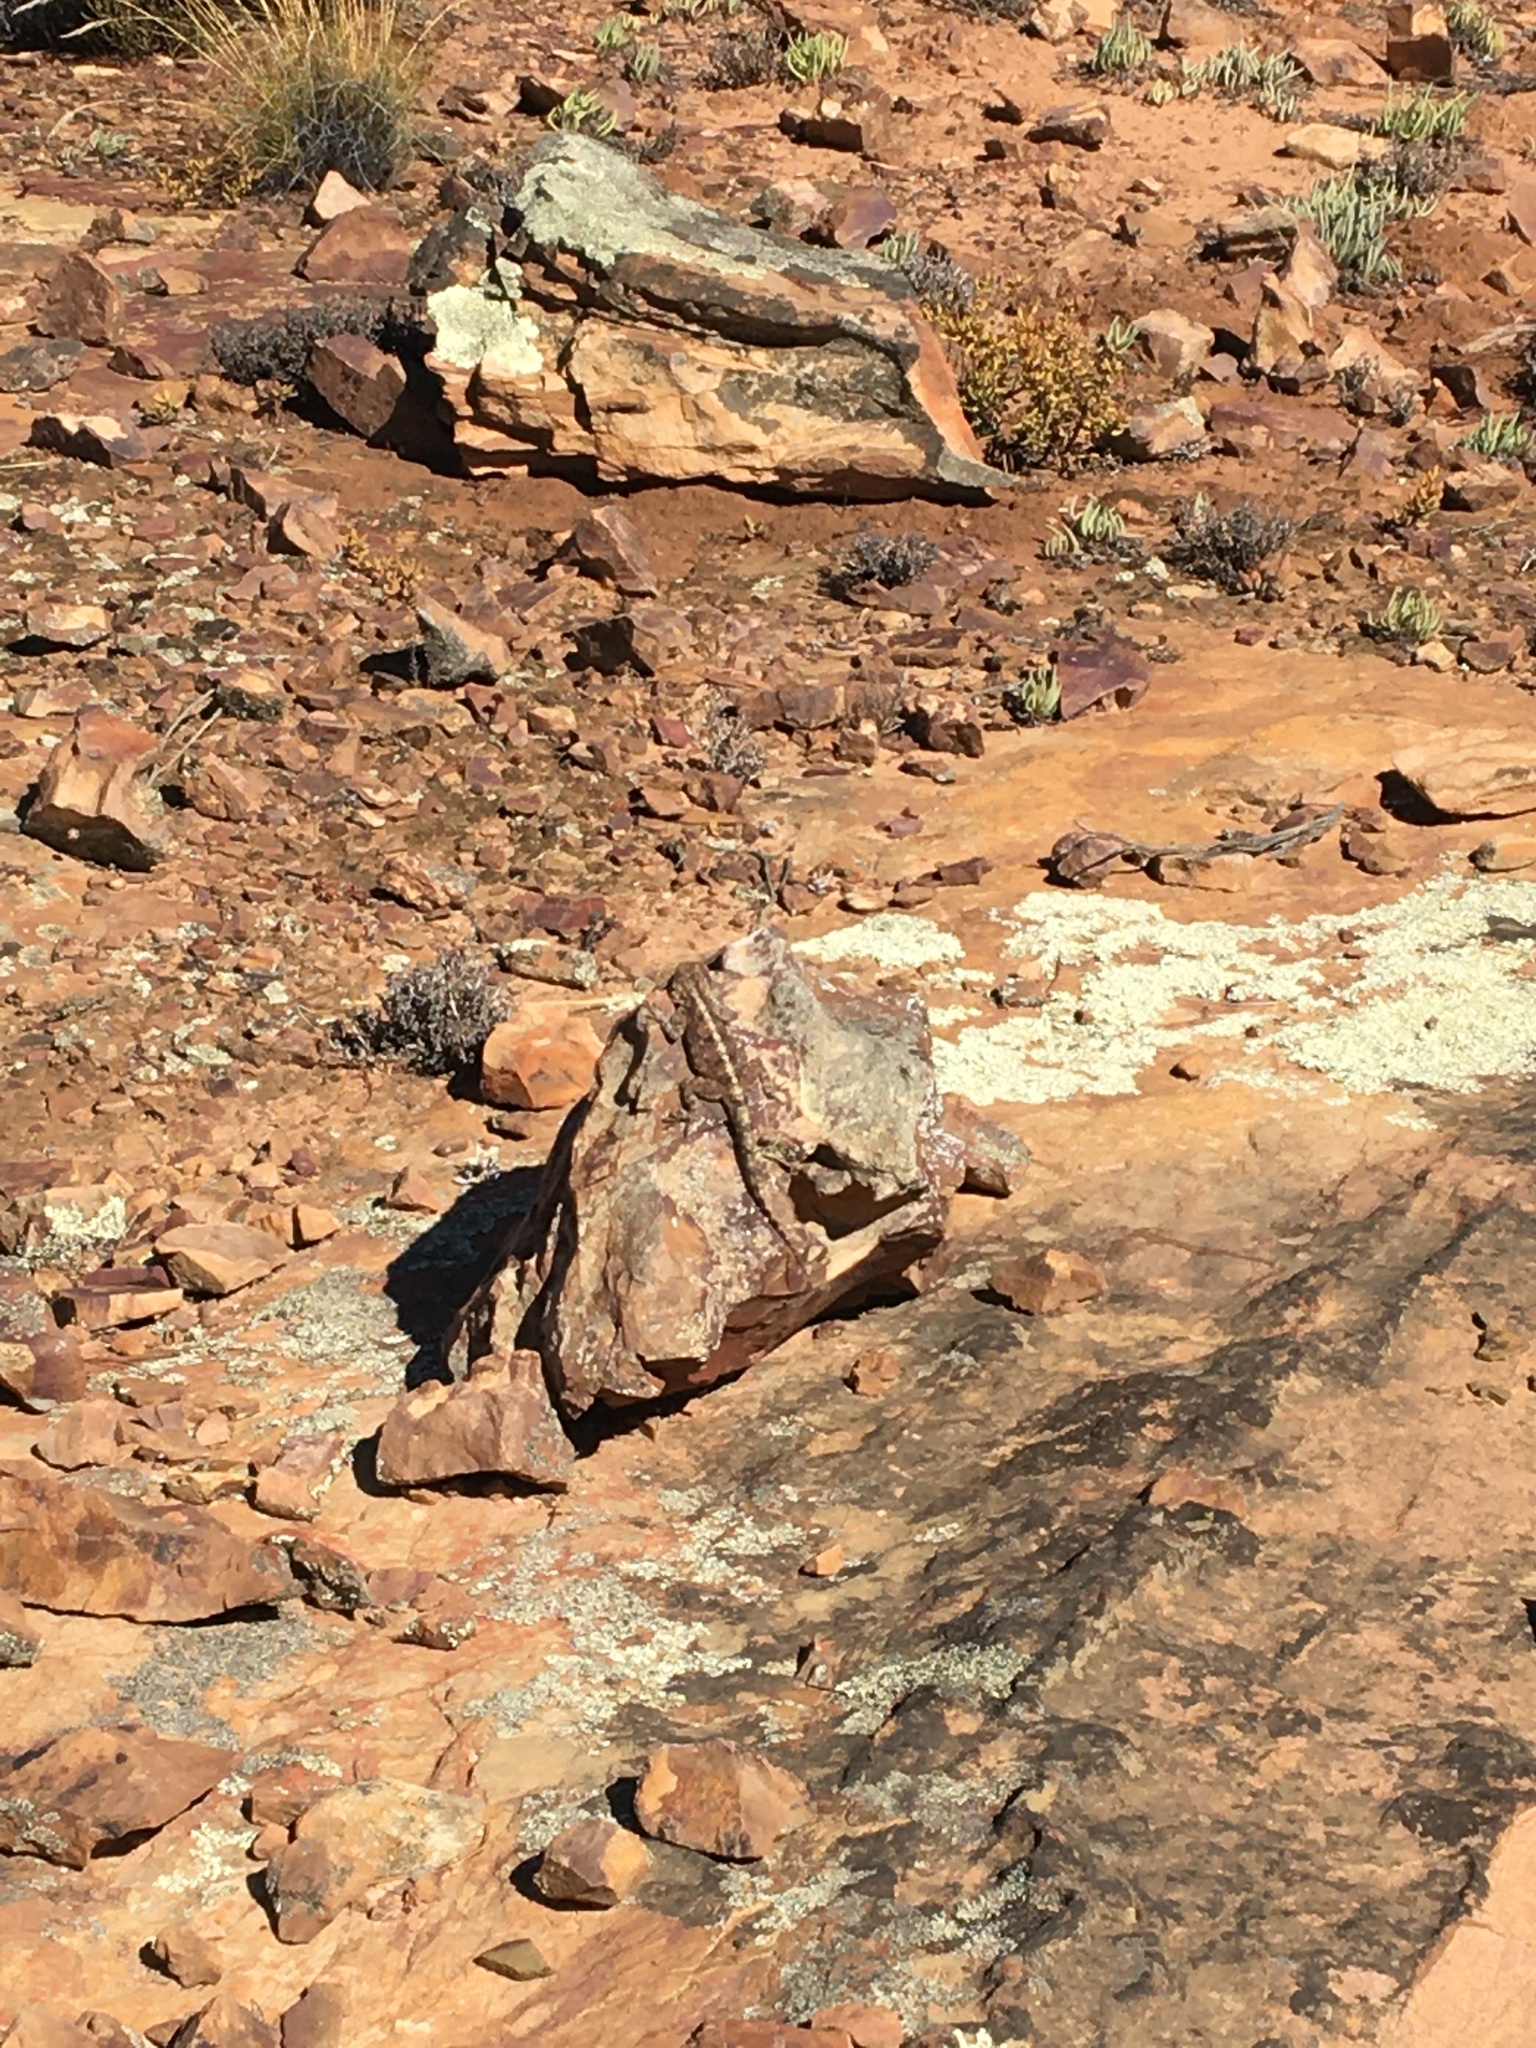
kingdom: Animalia
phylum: Chordata
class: Squamata
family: Agamidae
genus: Agama
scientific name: Agama atra
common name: Southern african rock agama
